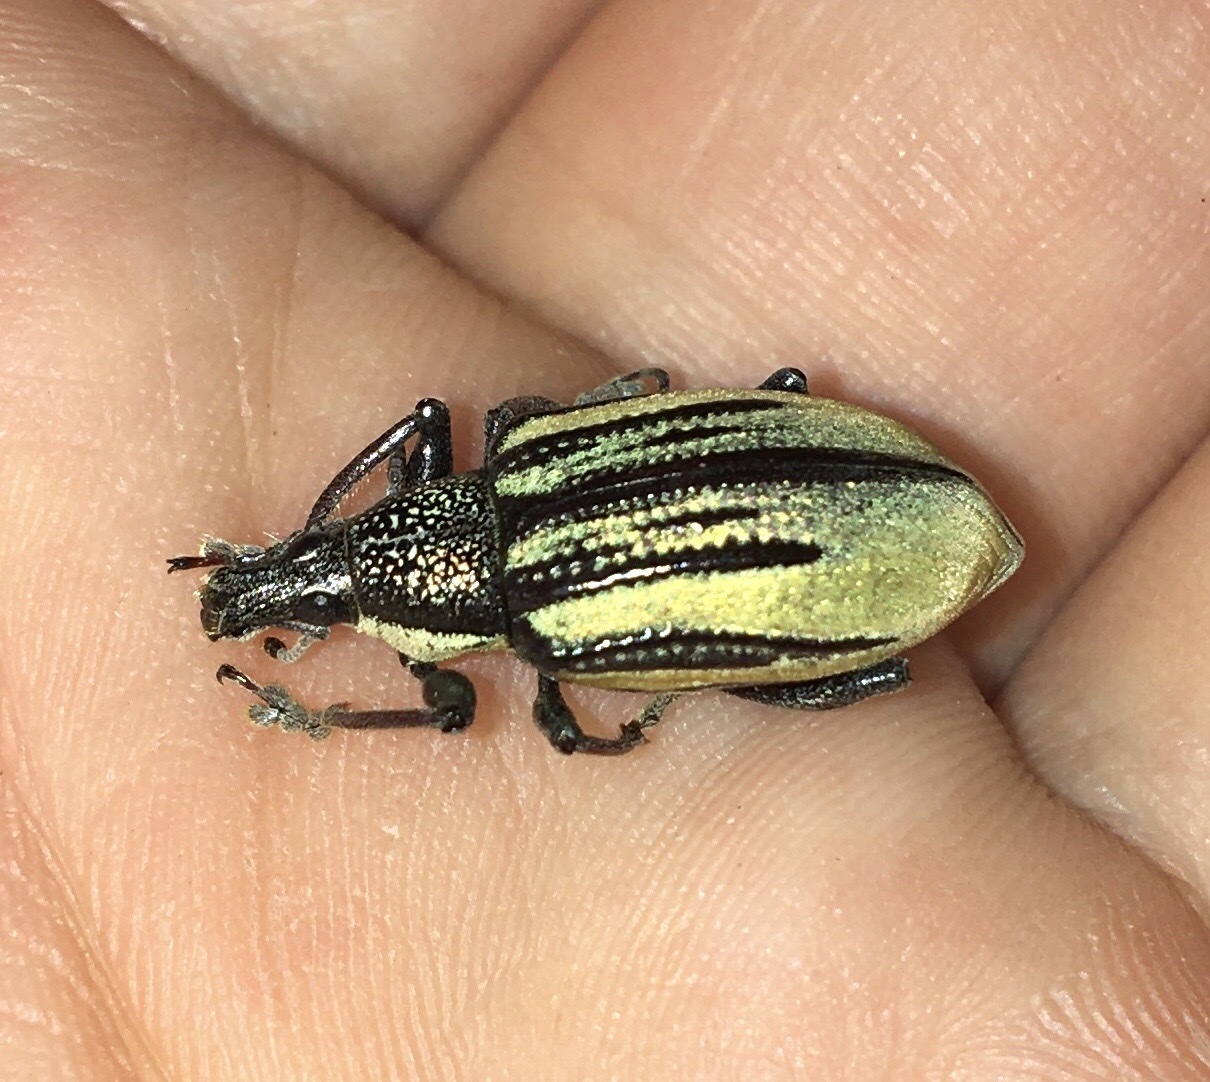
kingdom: Animalia
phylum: Arthropoda
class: Insecta
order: Coleoptera
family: Curculionidae
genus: Diaprepes
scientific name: Diaprepes abbreviatus
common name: Root weevil
